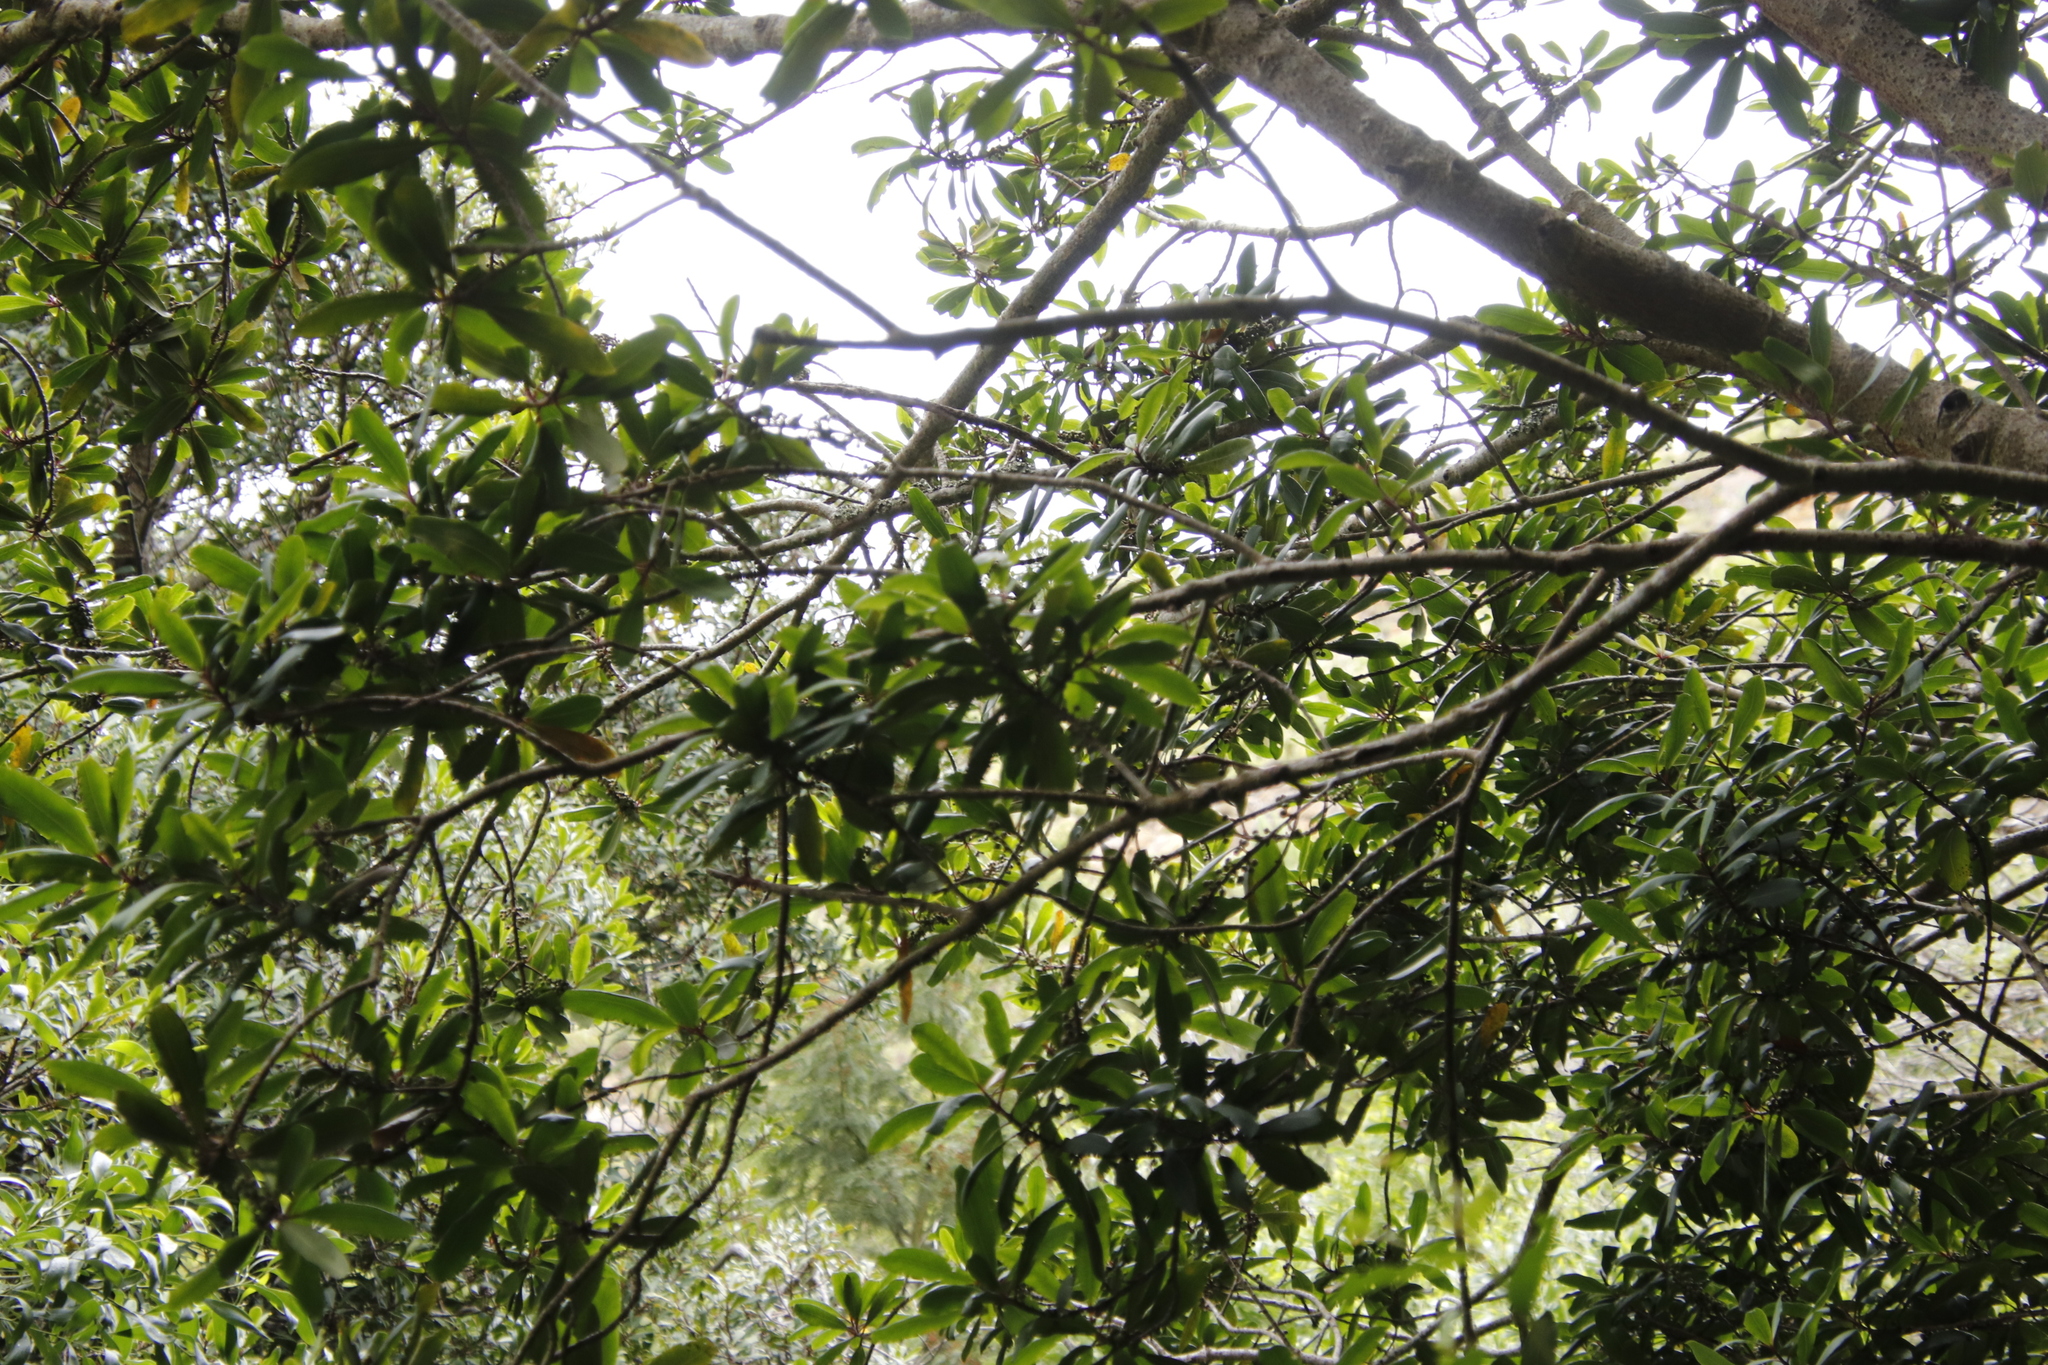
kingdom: Plantae
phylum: Tracheophyta
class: Magnoliopsida
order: Ericales
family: Primulaceae
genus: Myrsine
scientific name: Myrsine melanophloeos
